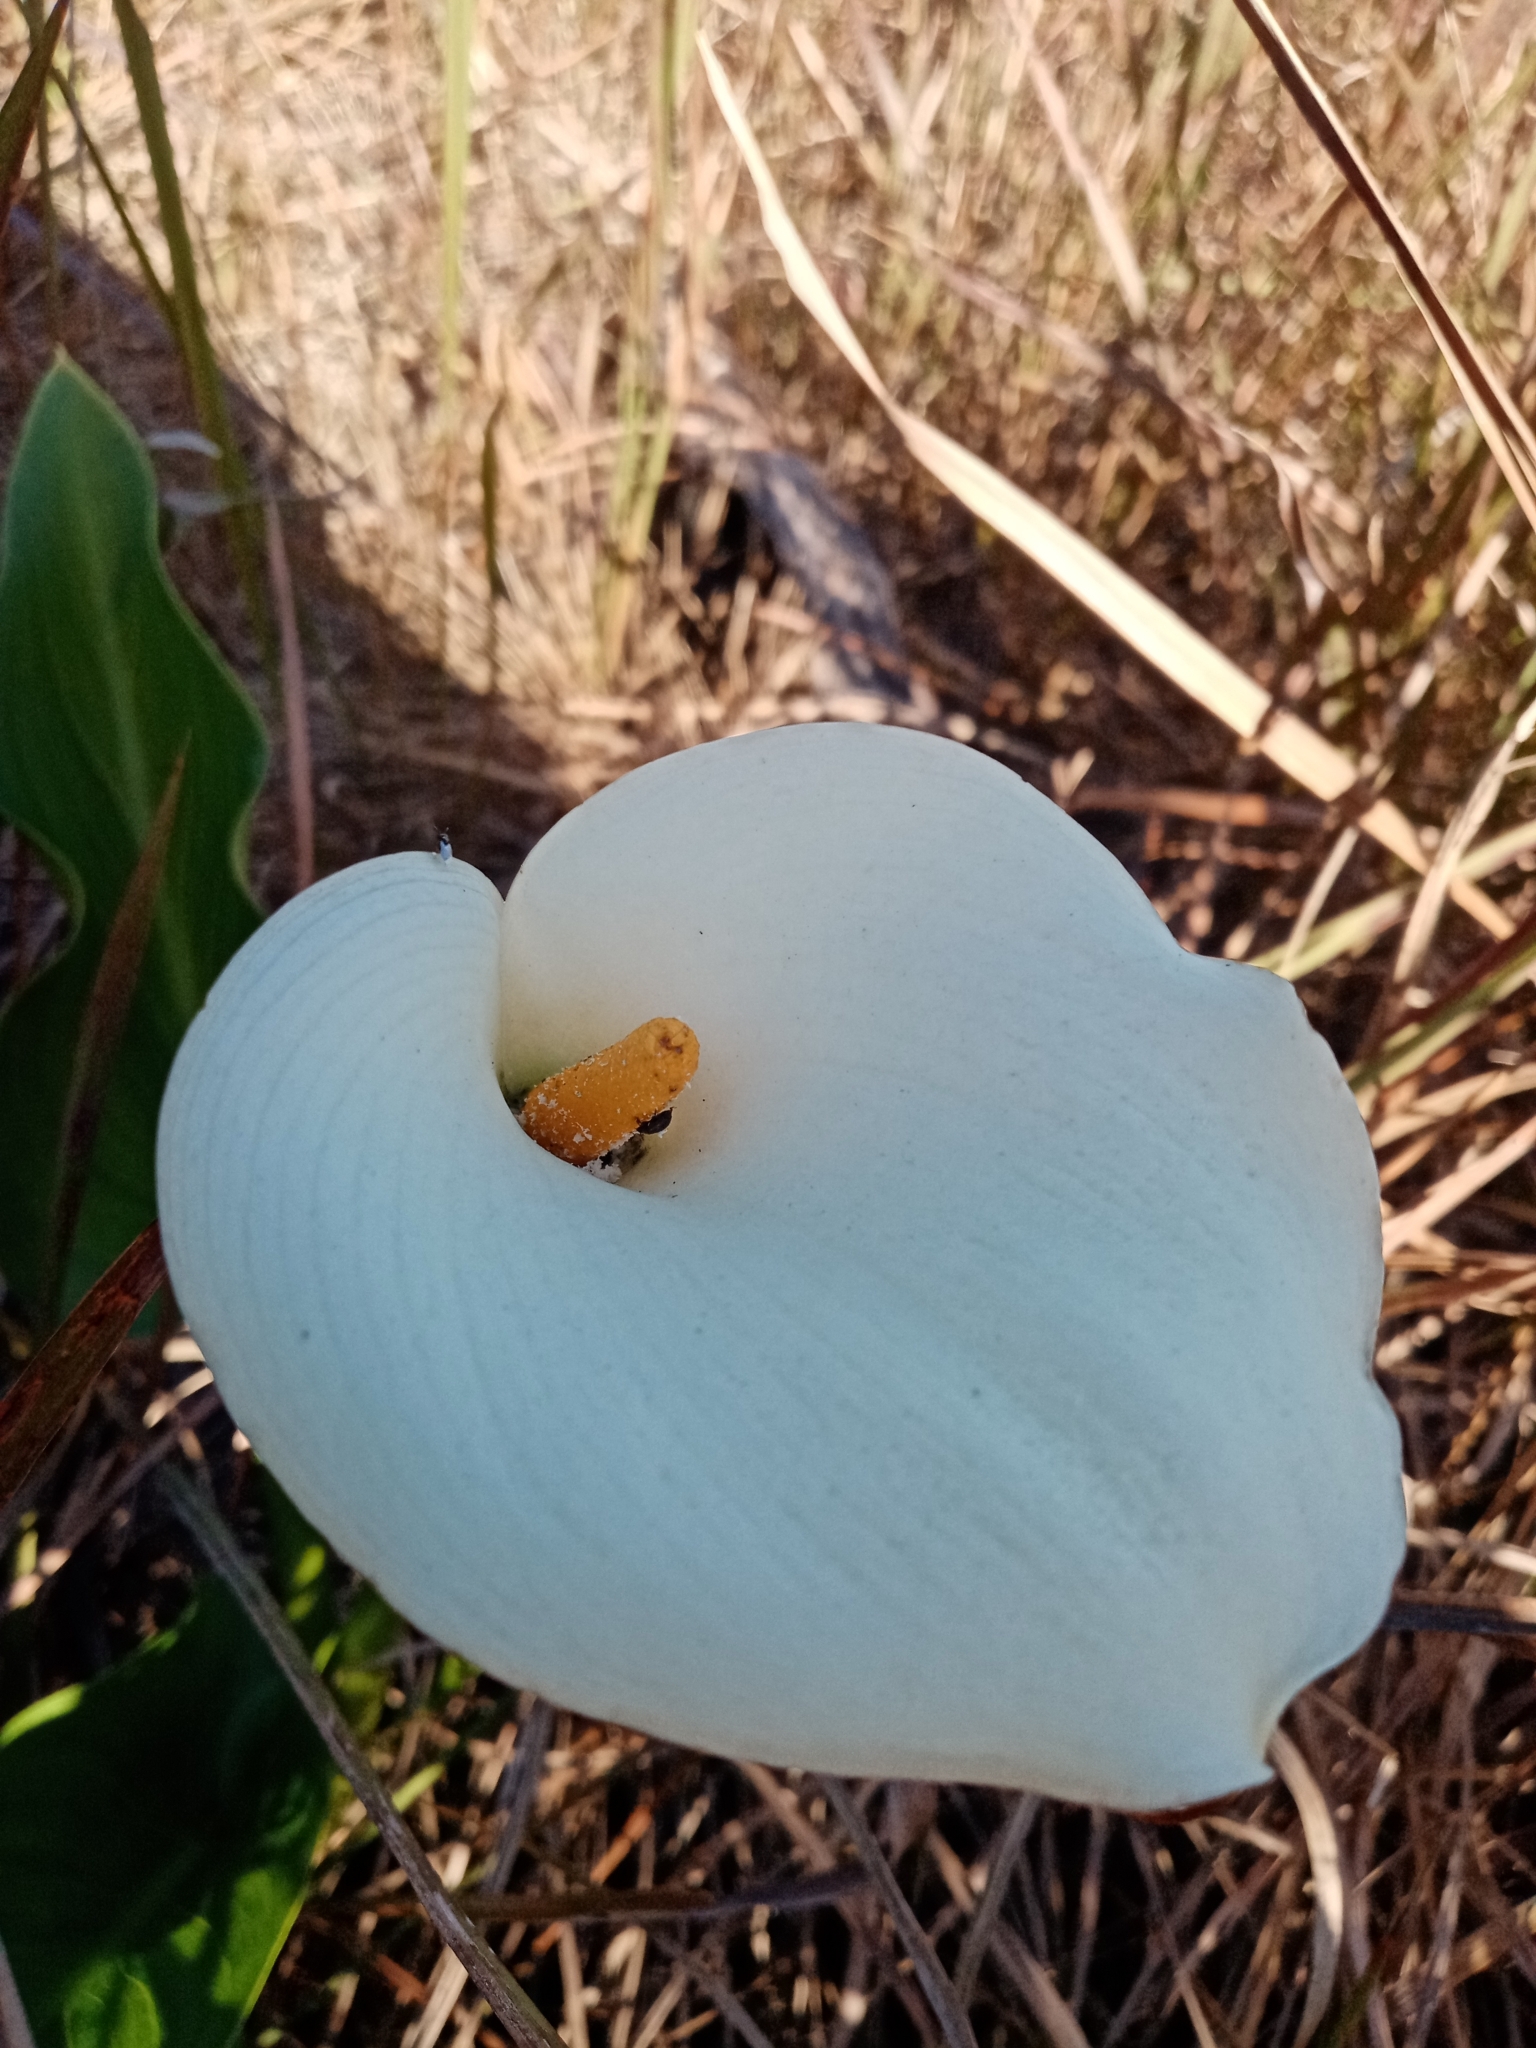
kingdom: Plantae
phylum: Tracheophyta
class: Liliopsida
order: Alismatales
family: Araceae
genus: Zantedeschia
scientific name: Zantedeschia aethiopica
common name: Altar-lily
